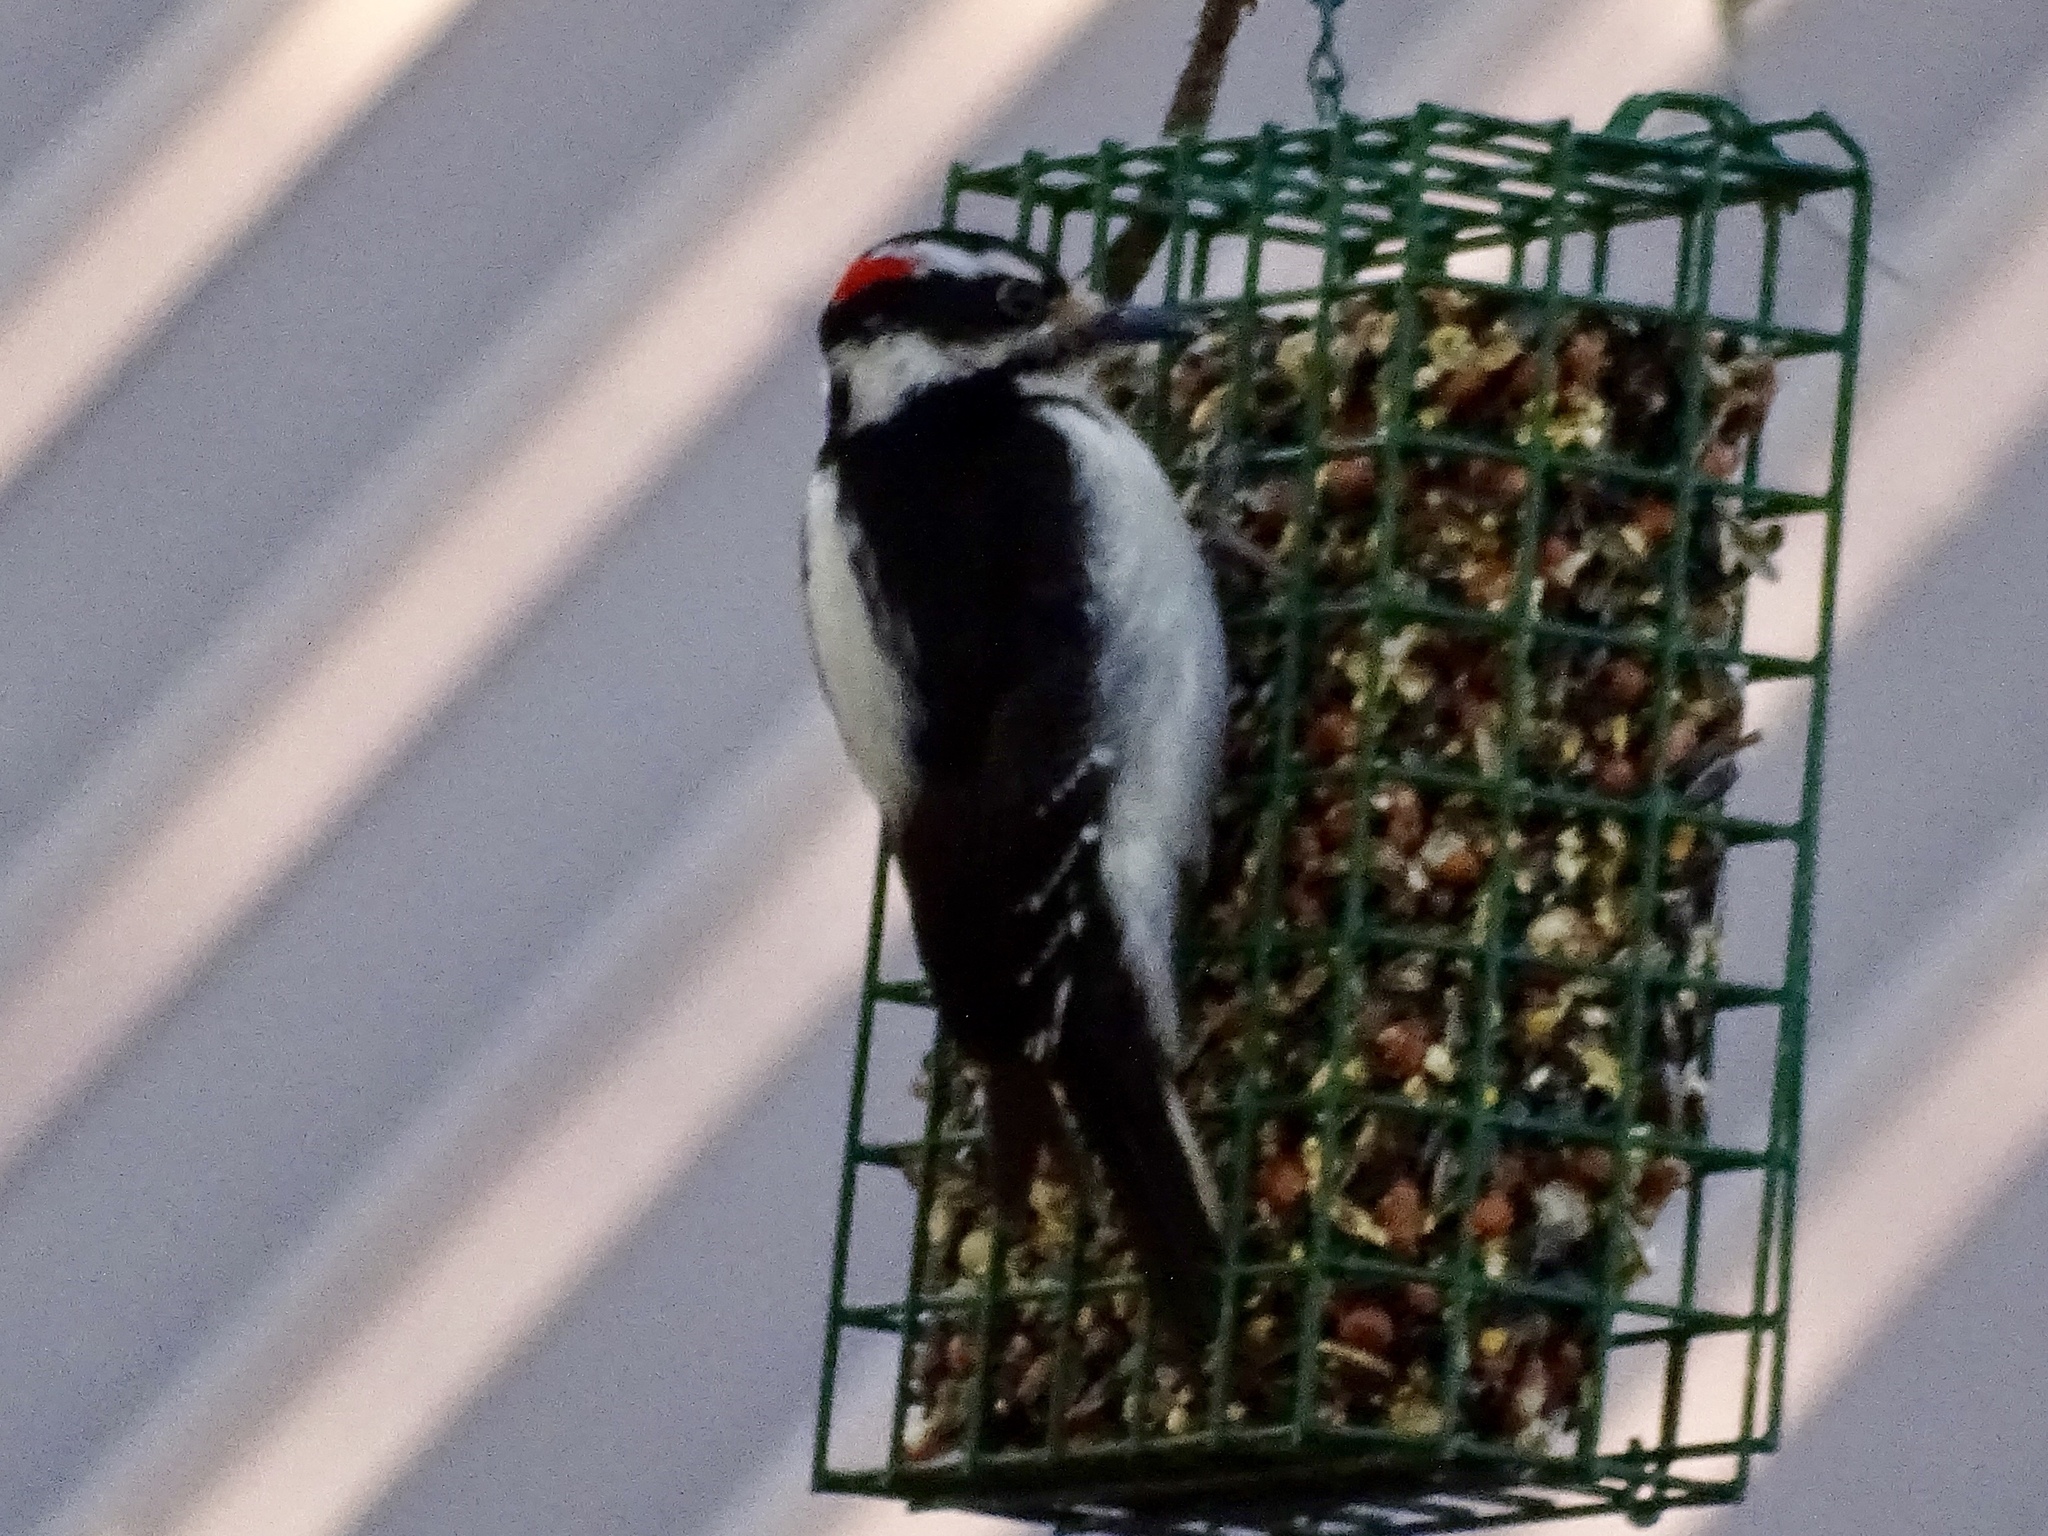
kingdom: Animalia
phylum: Chordata
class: Aves
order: Piciformes
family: Picidae
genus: Leuconotopicus
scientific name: Leuconotopicus villosus
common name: Hairy woodpecker
